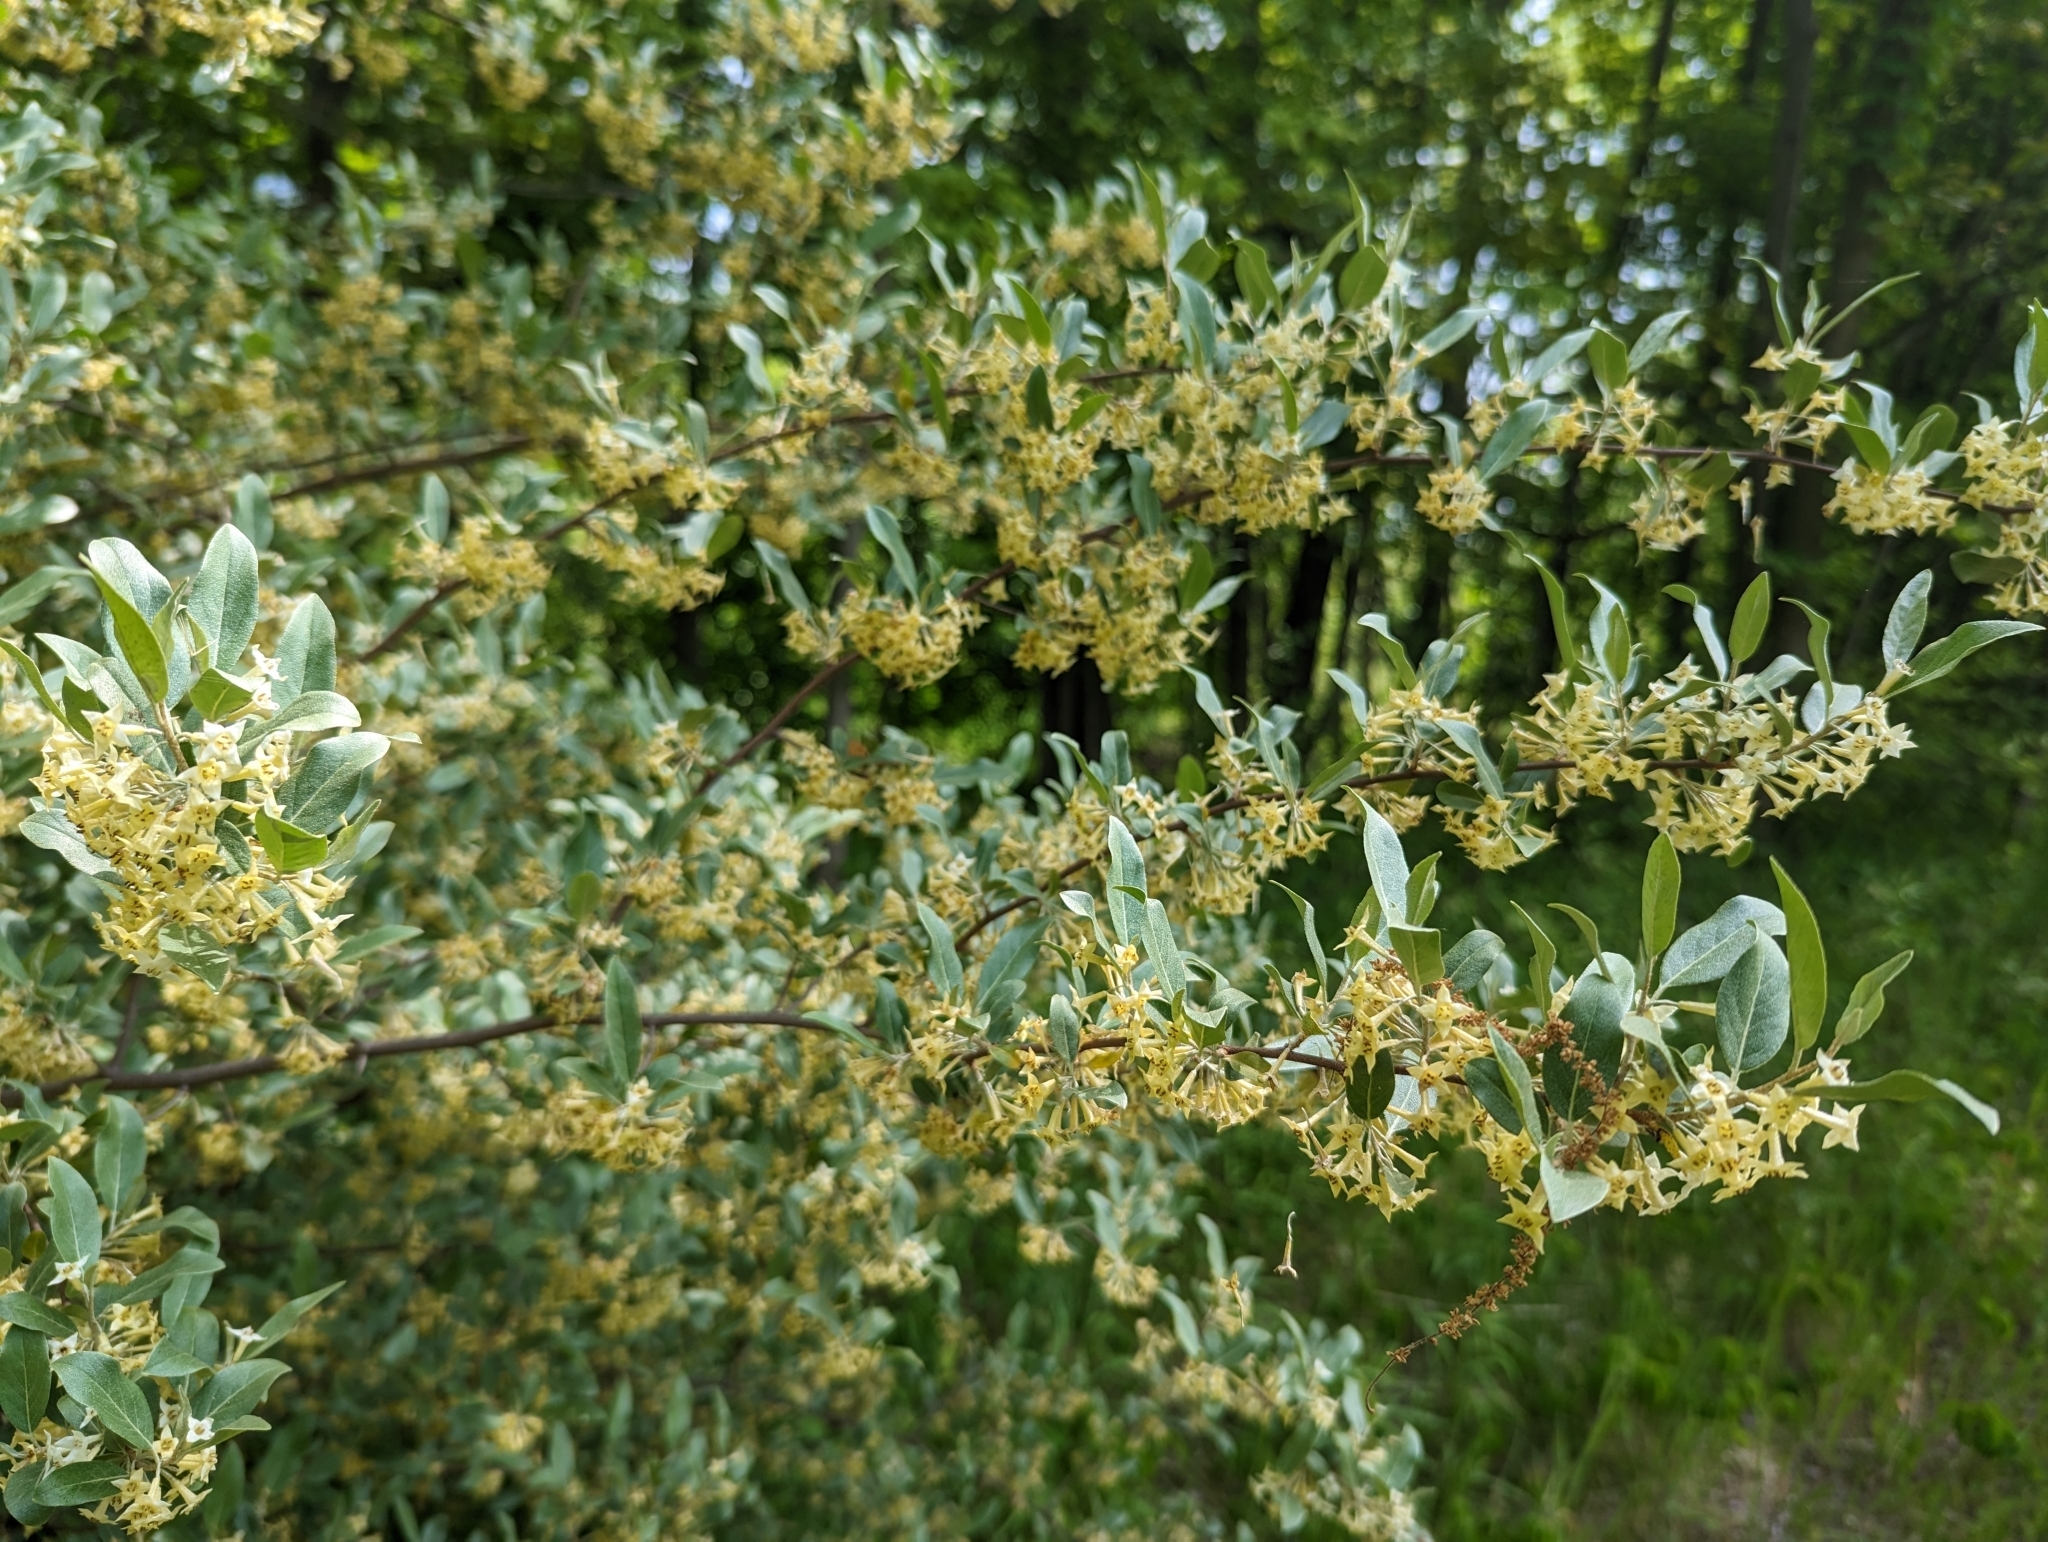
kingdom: Plantae
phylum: Tracheophyta
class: Magnoliopsida
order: Rosales
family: Elaeagnaceae
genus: Elaeagnus
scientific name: Elaeagnus umbellata
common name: Autumn olive
